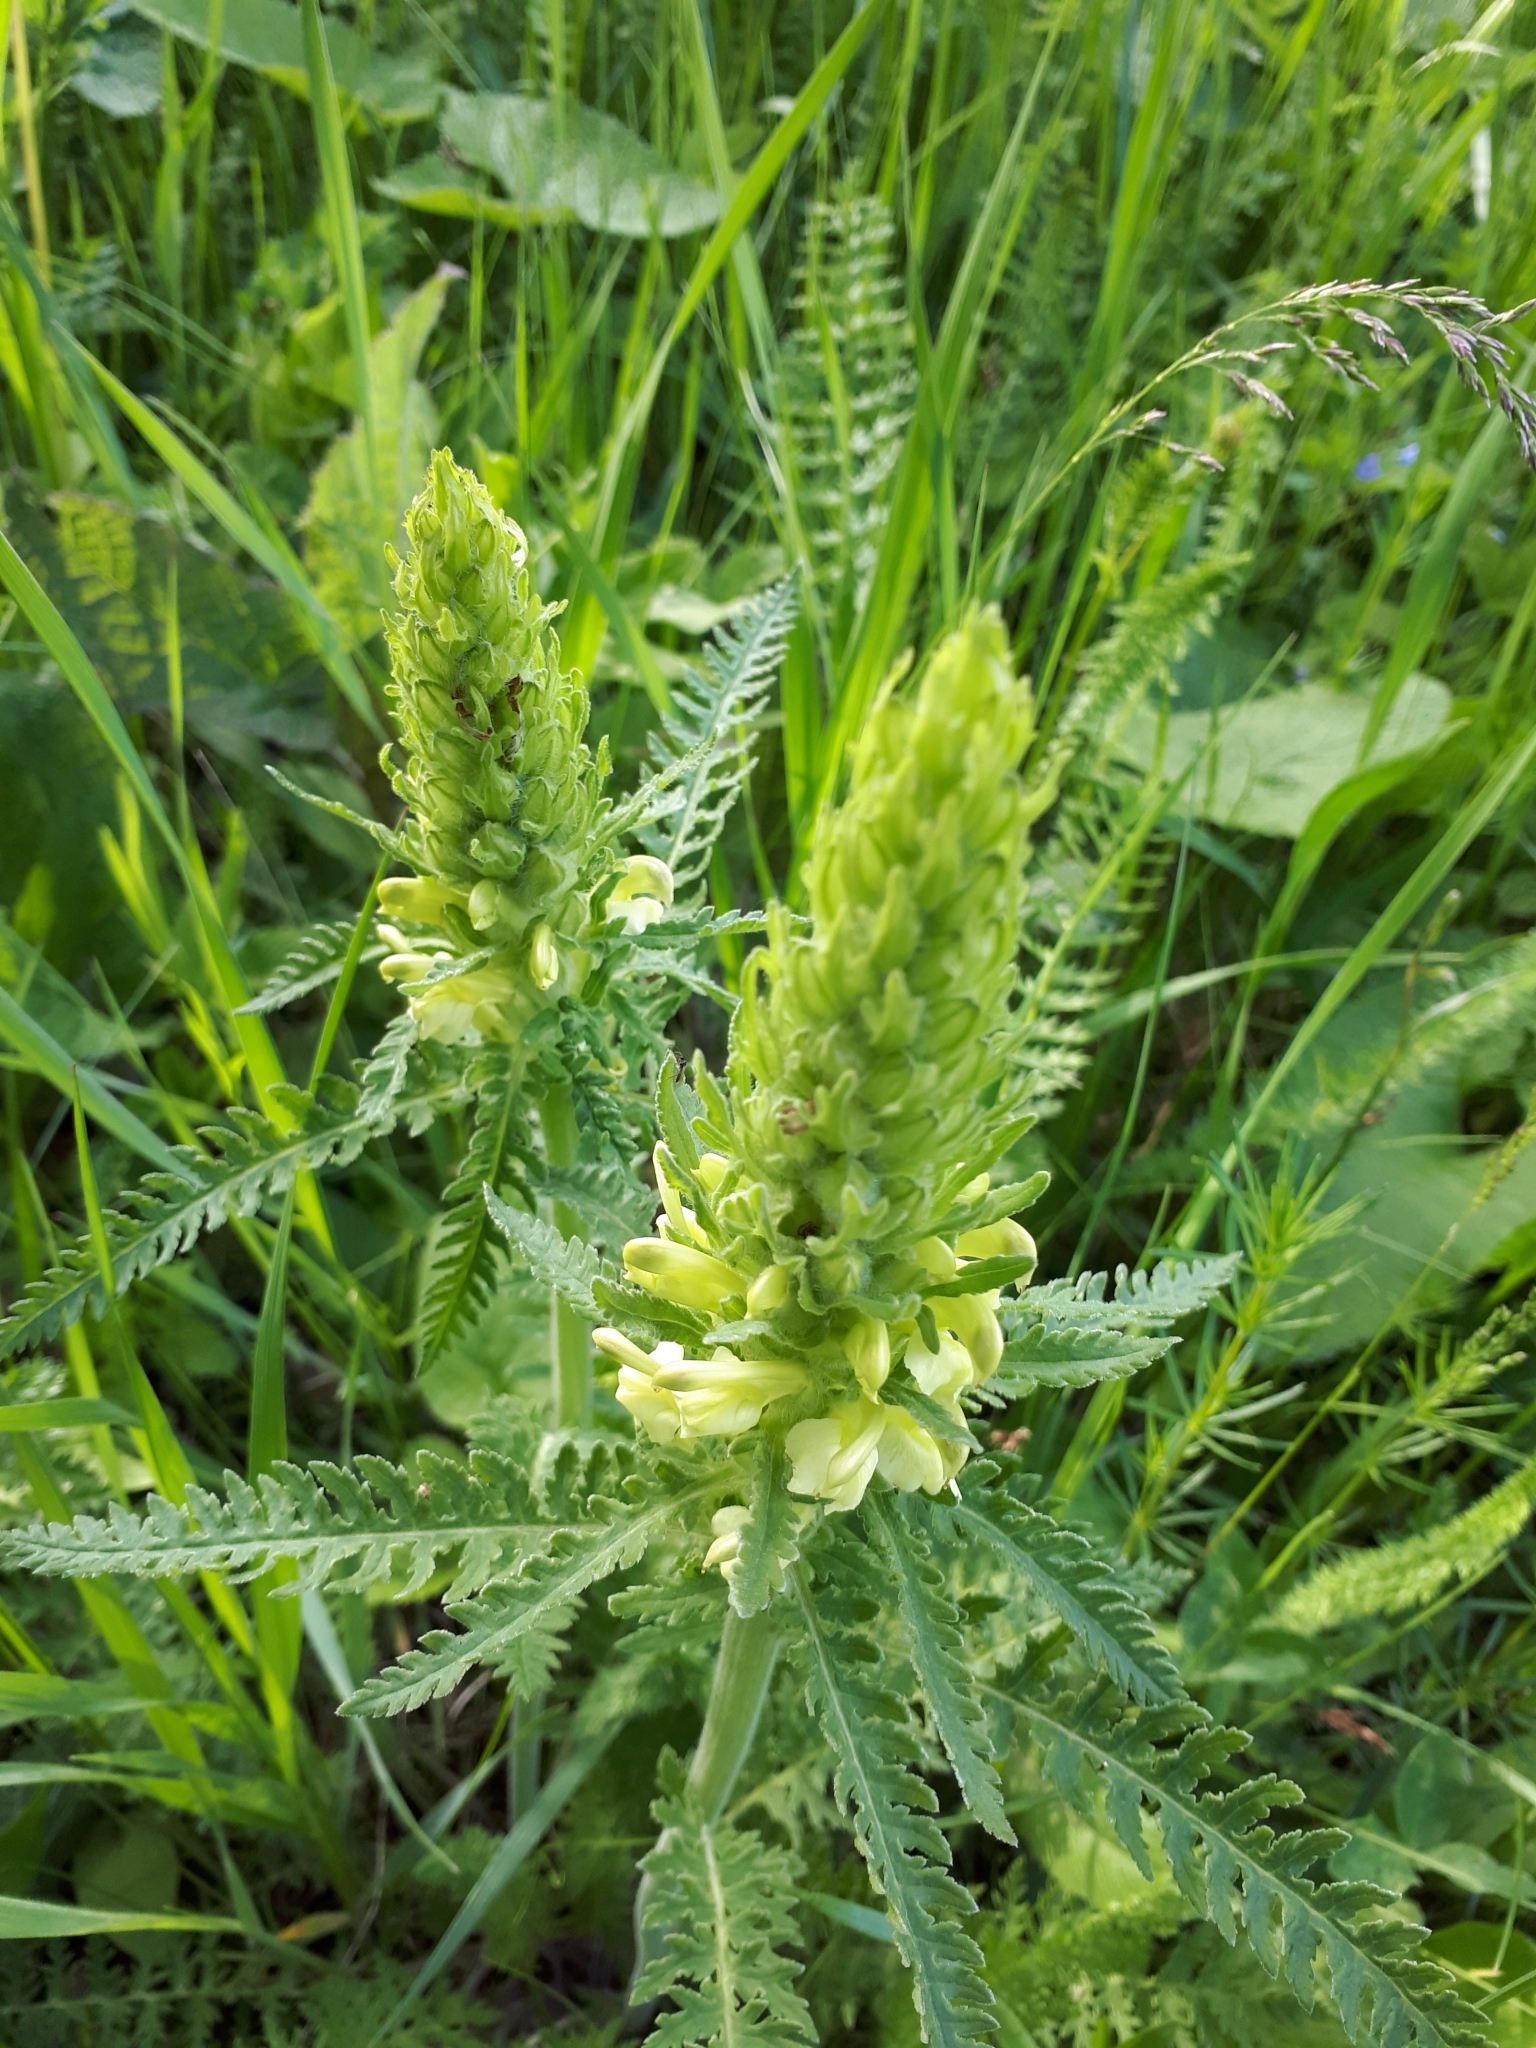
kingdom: Plantae
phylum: Tracheophyta
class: Magnoliopsida
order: Lamiales
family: Orobanchaceae
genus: Pedicularis
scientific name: Pedicularis kaufmannii
